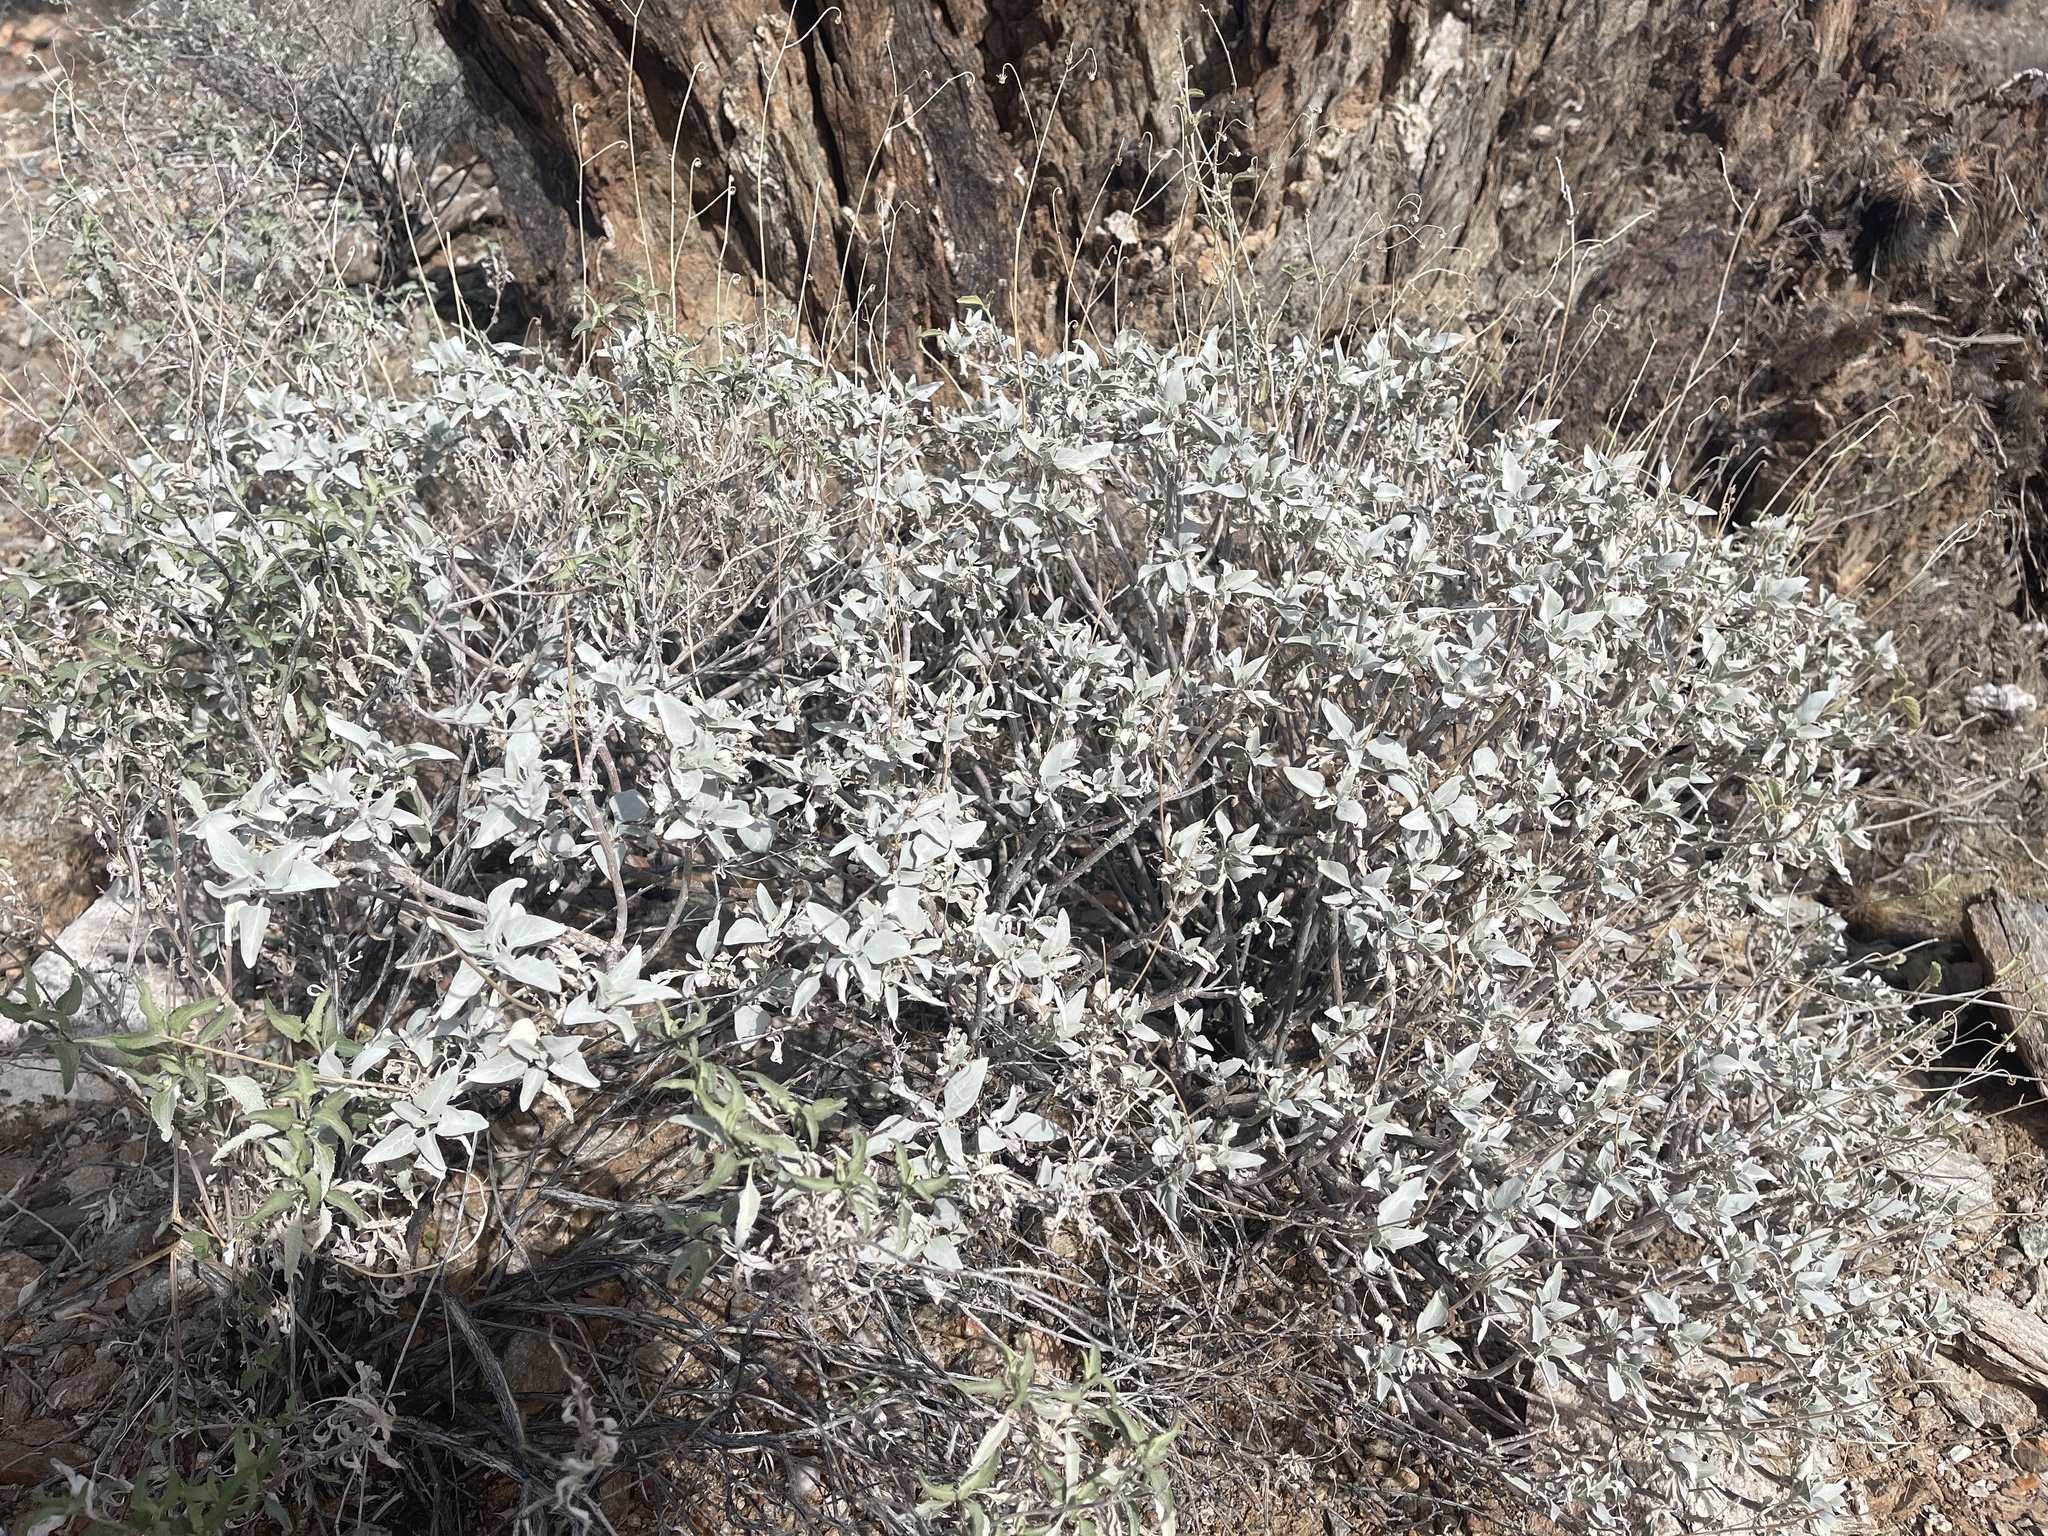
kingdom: Plantae
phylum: Tracheophyta
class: Magnoliopsida
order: Asterales
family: Asteraceae
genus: Encelia
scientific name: Encelia farinosa
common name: Brittlebush
